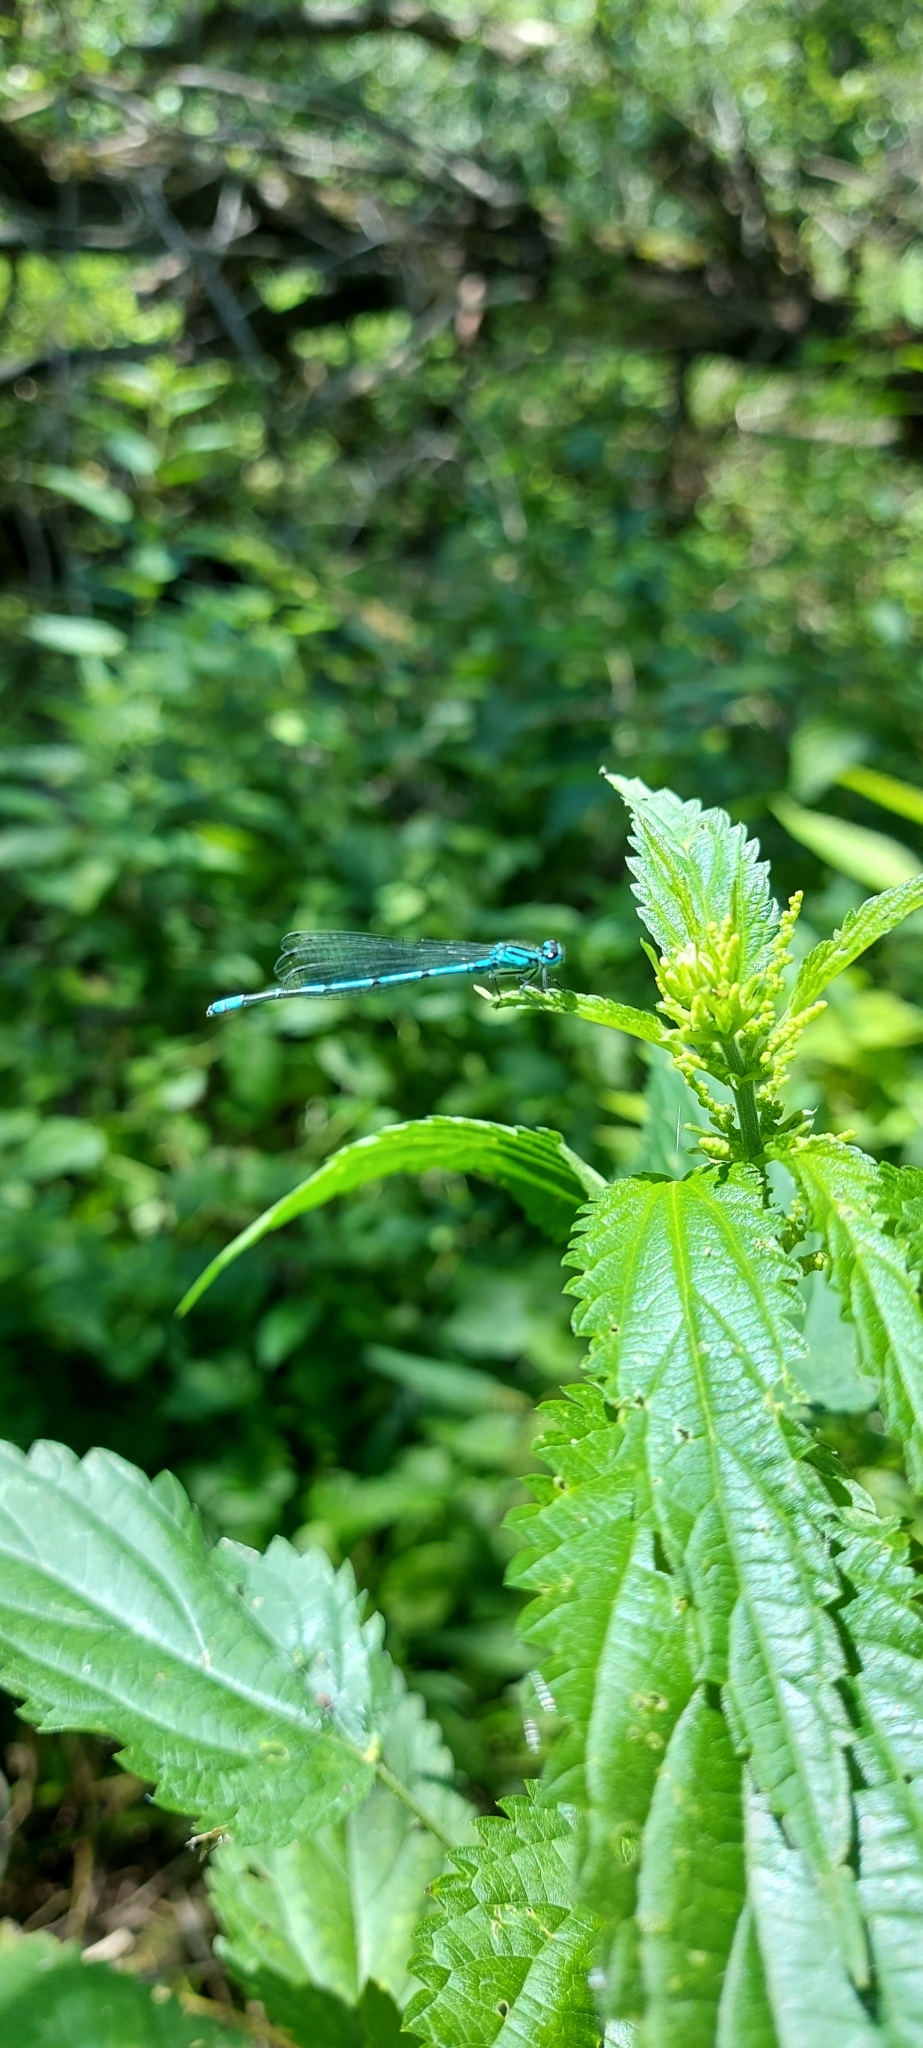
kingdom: Animalia
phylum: Arthropoda
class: Insecta
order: Odonata
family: Coenagrionidae
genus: Coenagrion
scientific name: Coenagrion puella
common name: Azure damselfly
